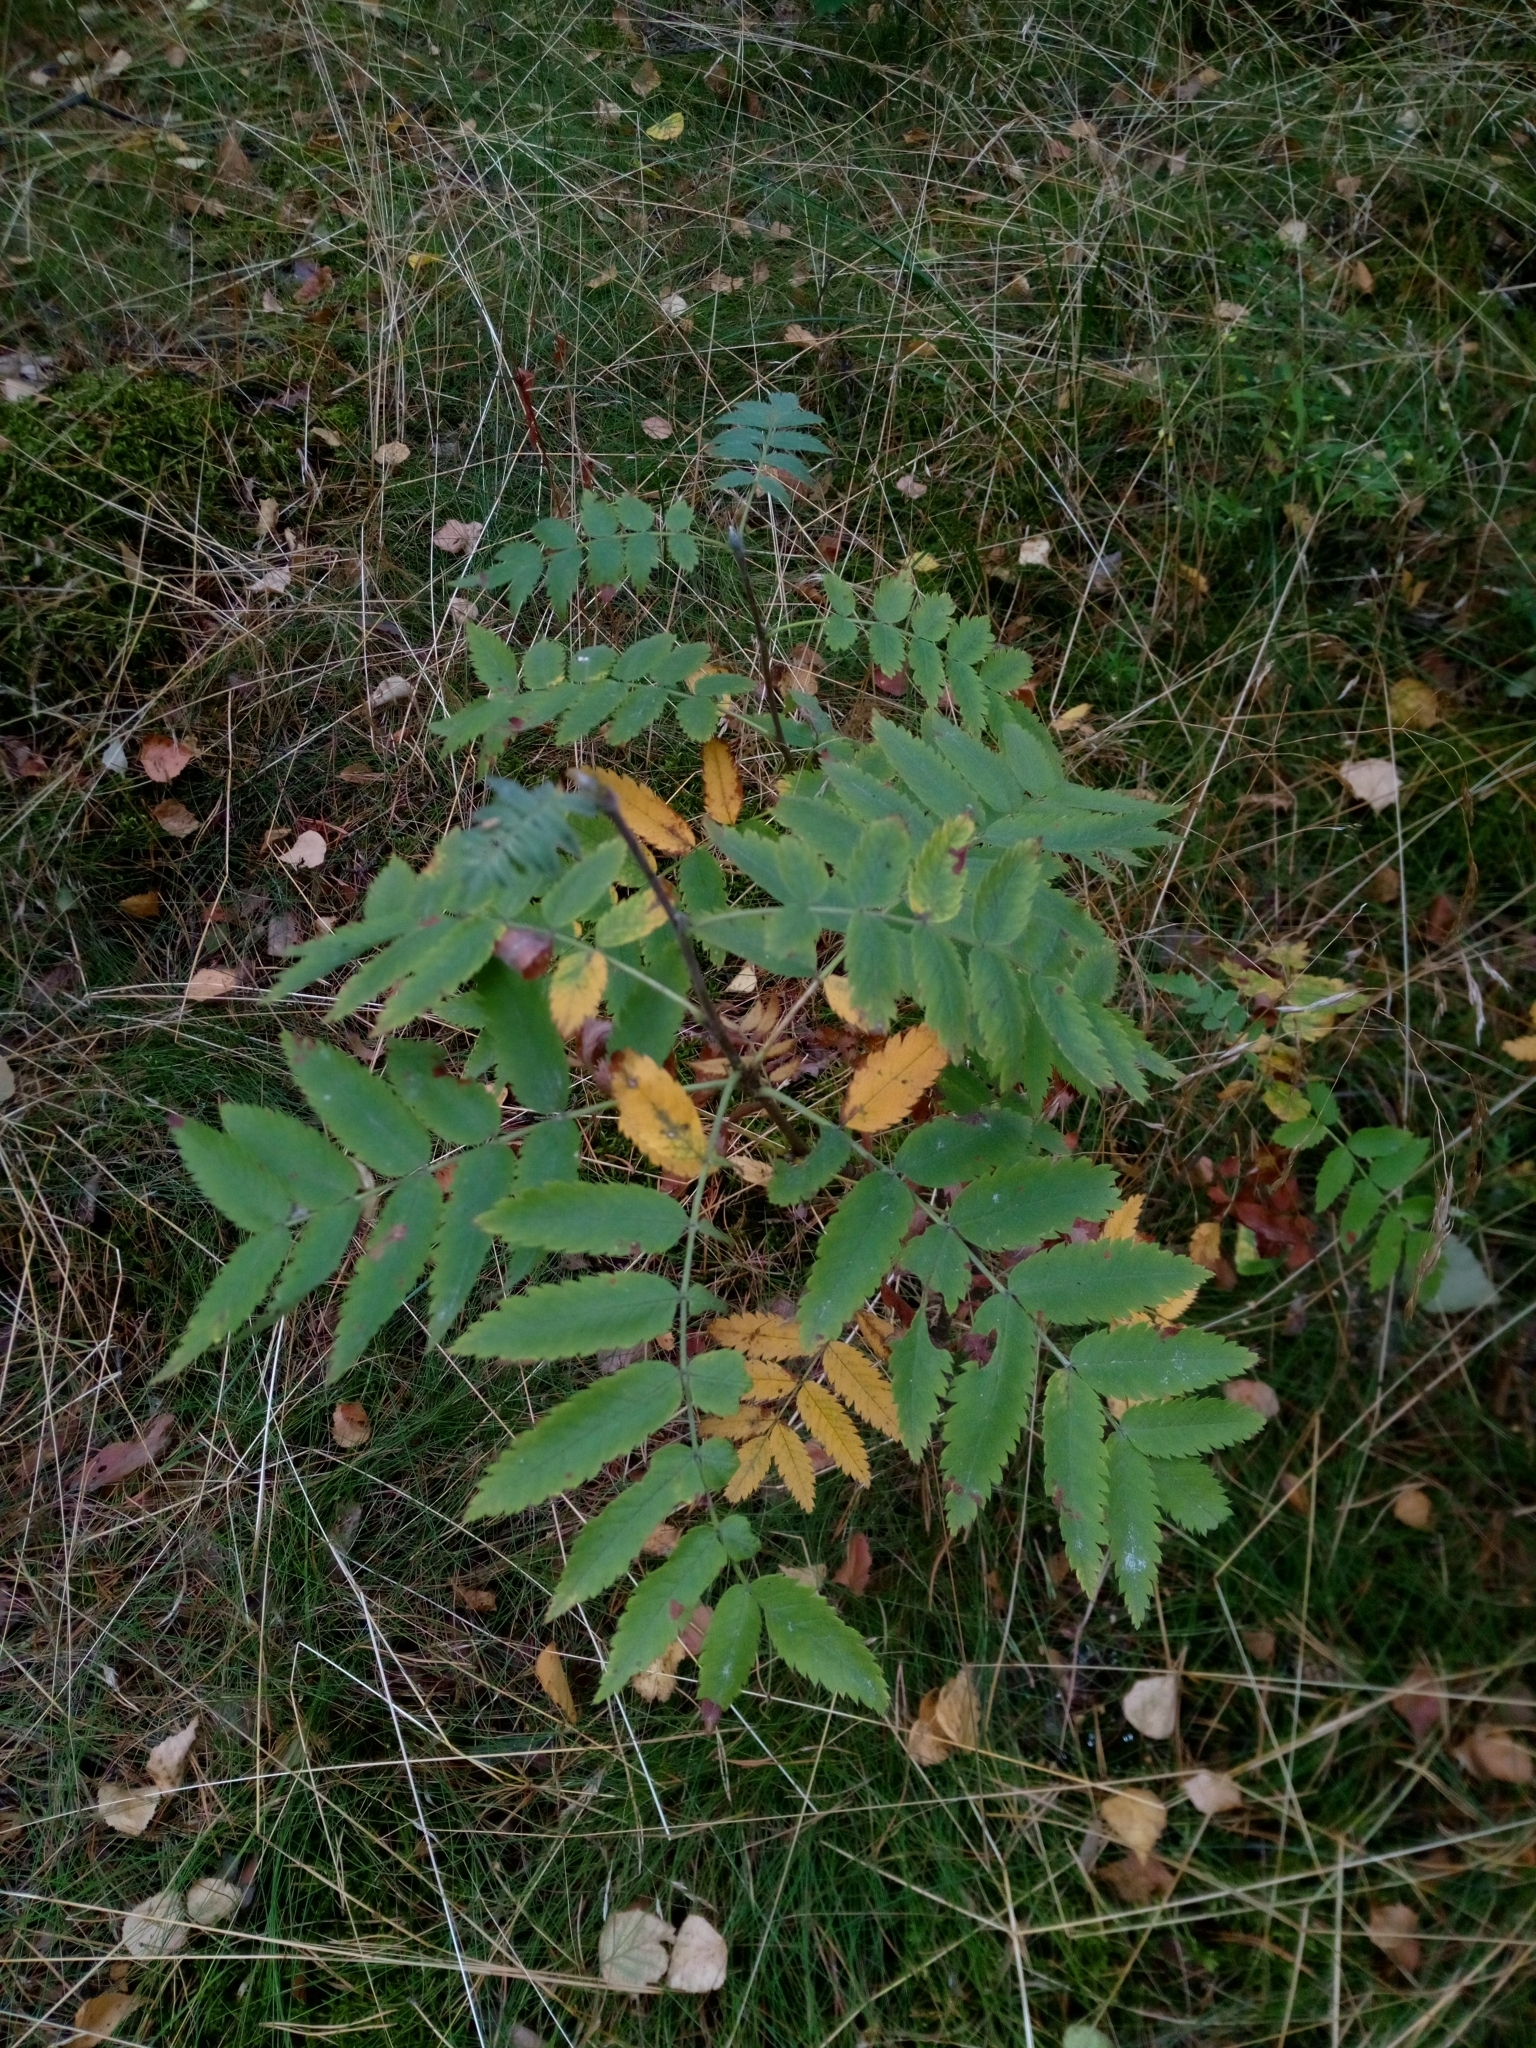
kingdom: Plantae
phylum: Tracheophyta
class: Magnoliopsida
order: Rosales
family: Rosaceae
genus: Sorbus
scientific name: Sorbus aucuparia
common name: Rowan
